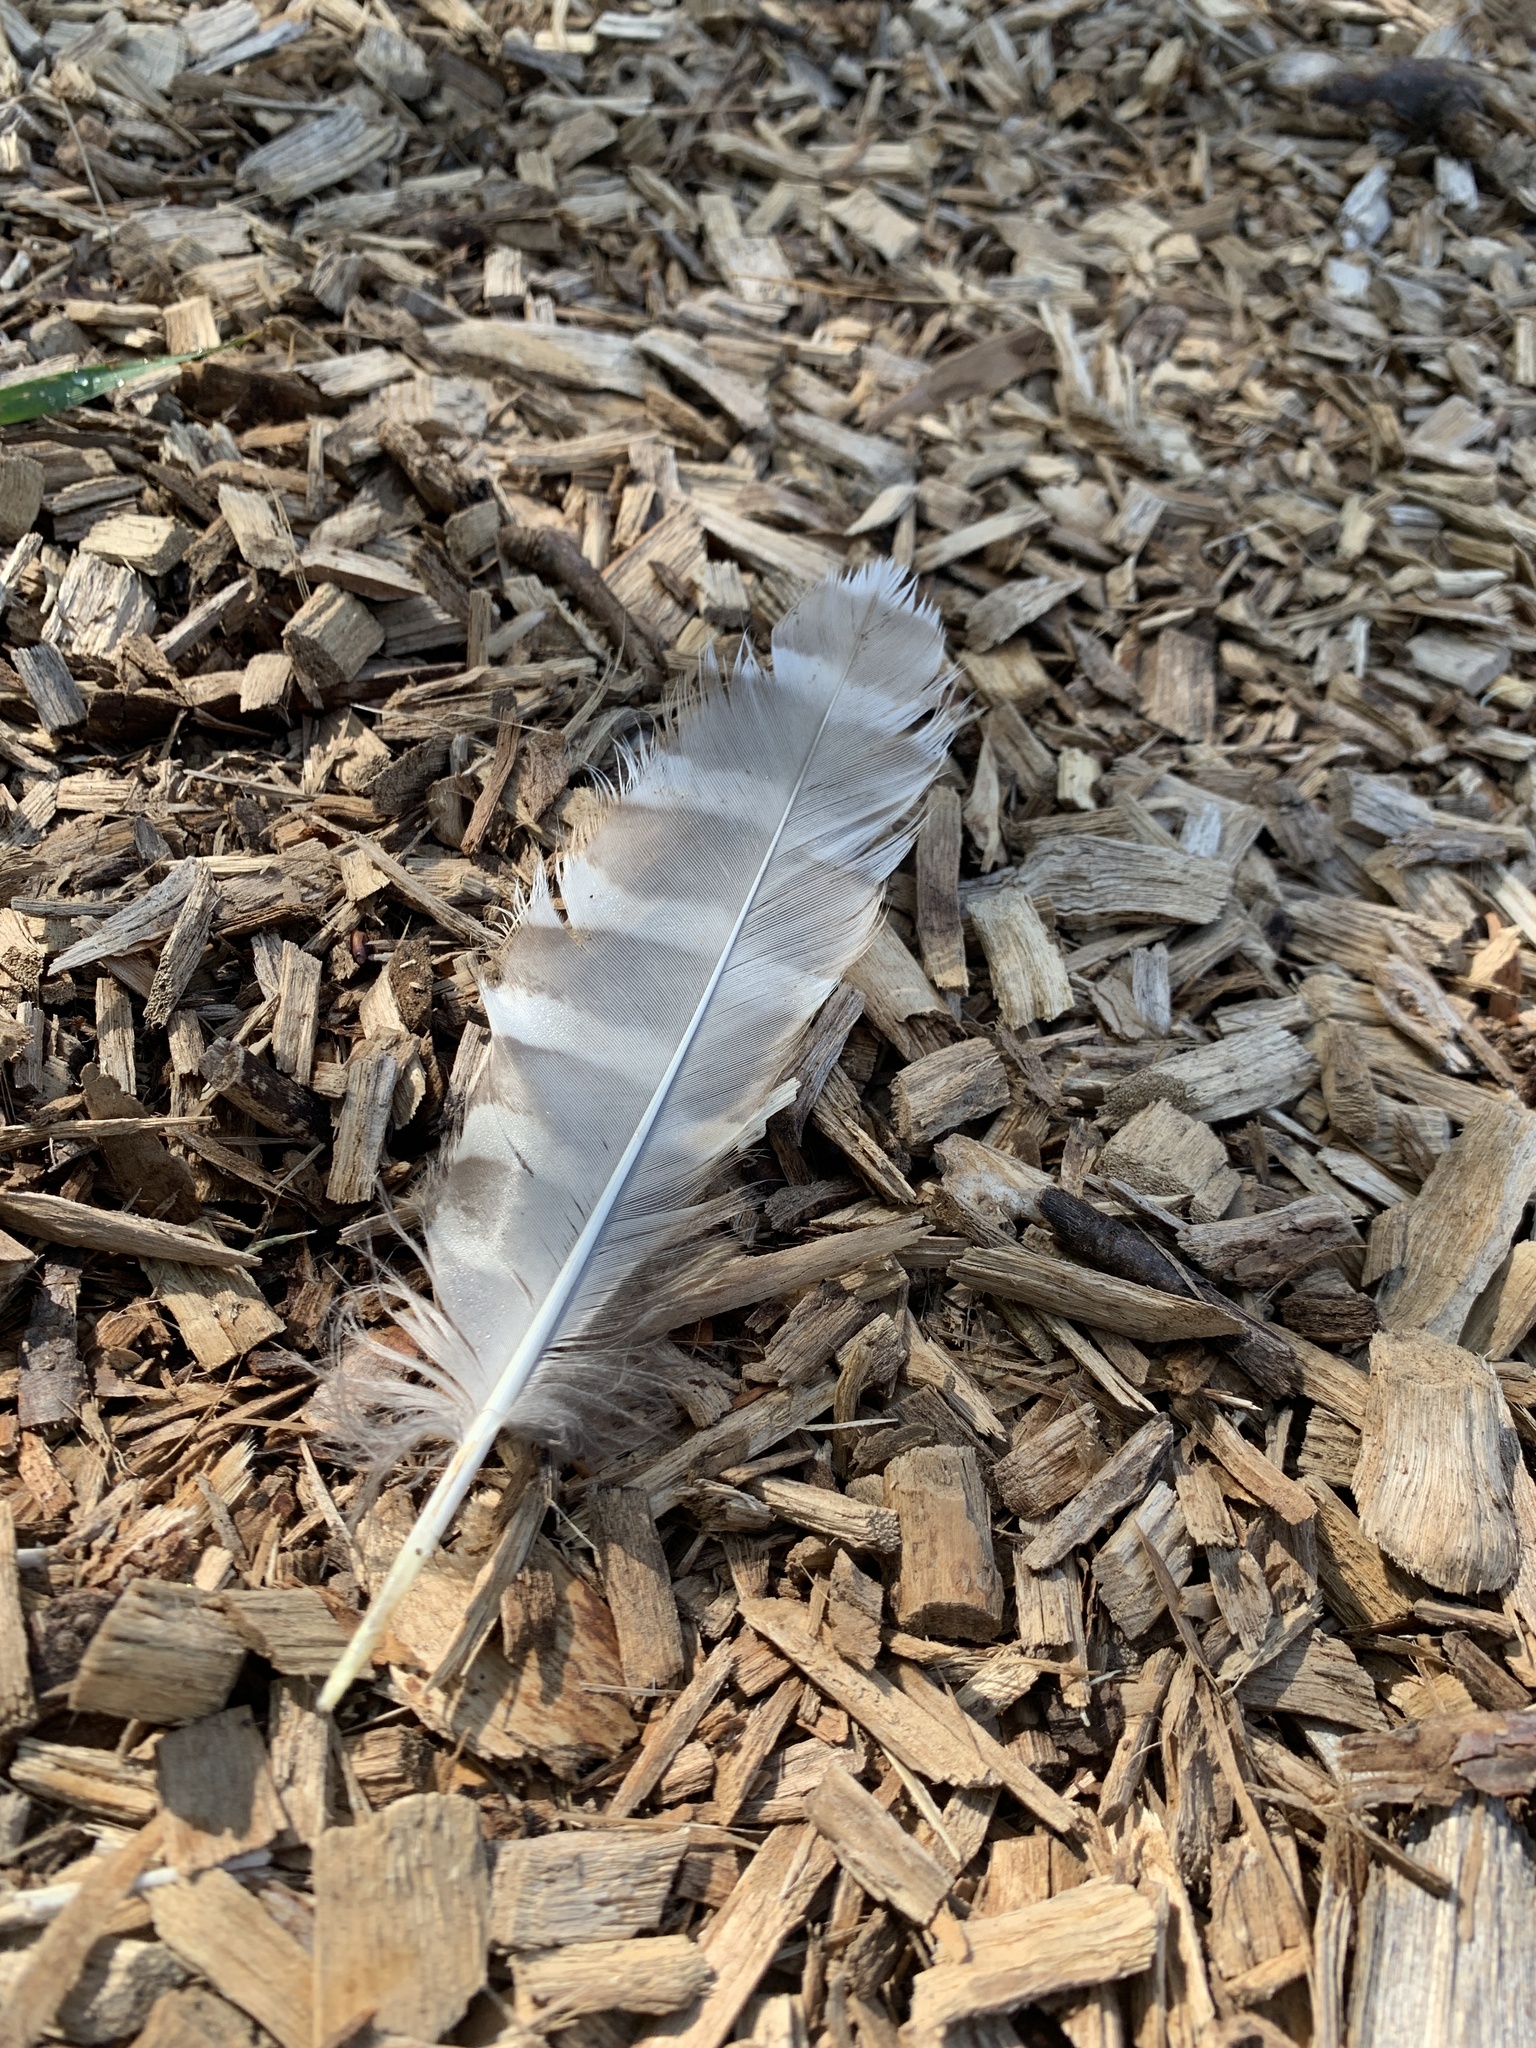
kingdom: Animalia
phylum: Chordata
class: Aves
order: Strigiformes
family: Strigidae
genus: Strix
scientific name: Strix varia
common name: Barred owl
